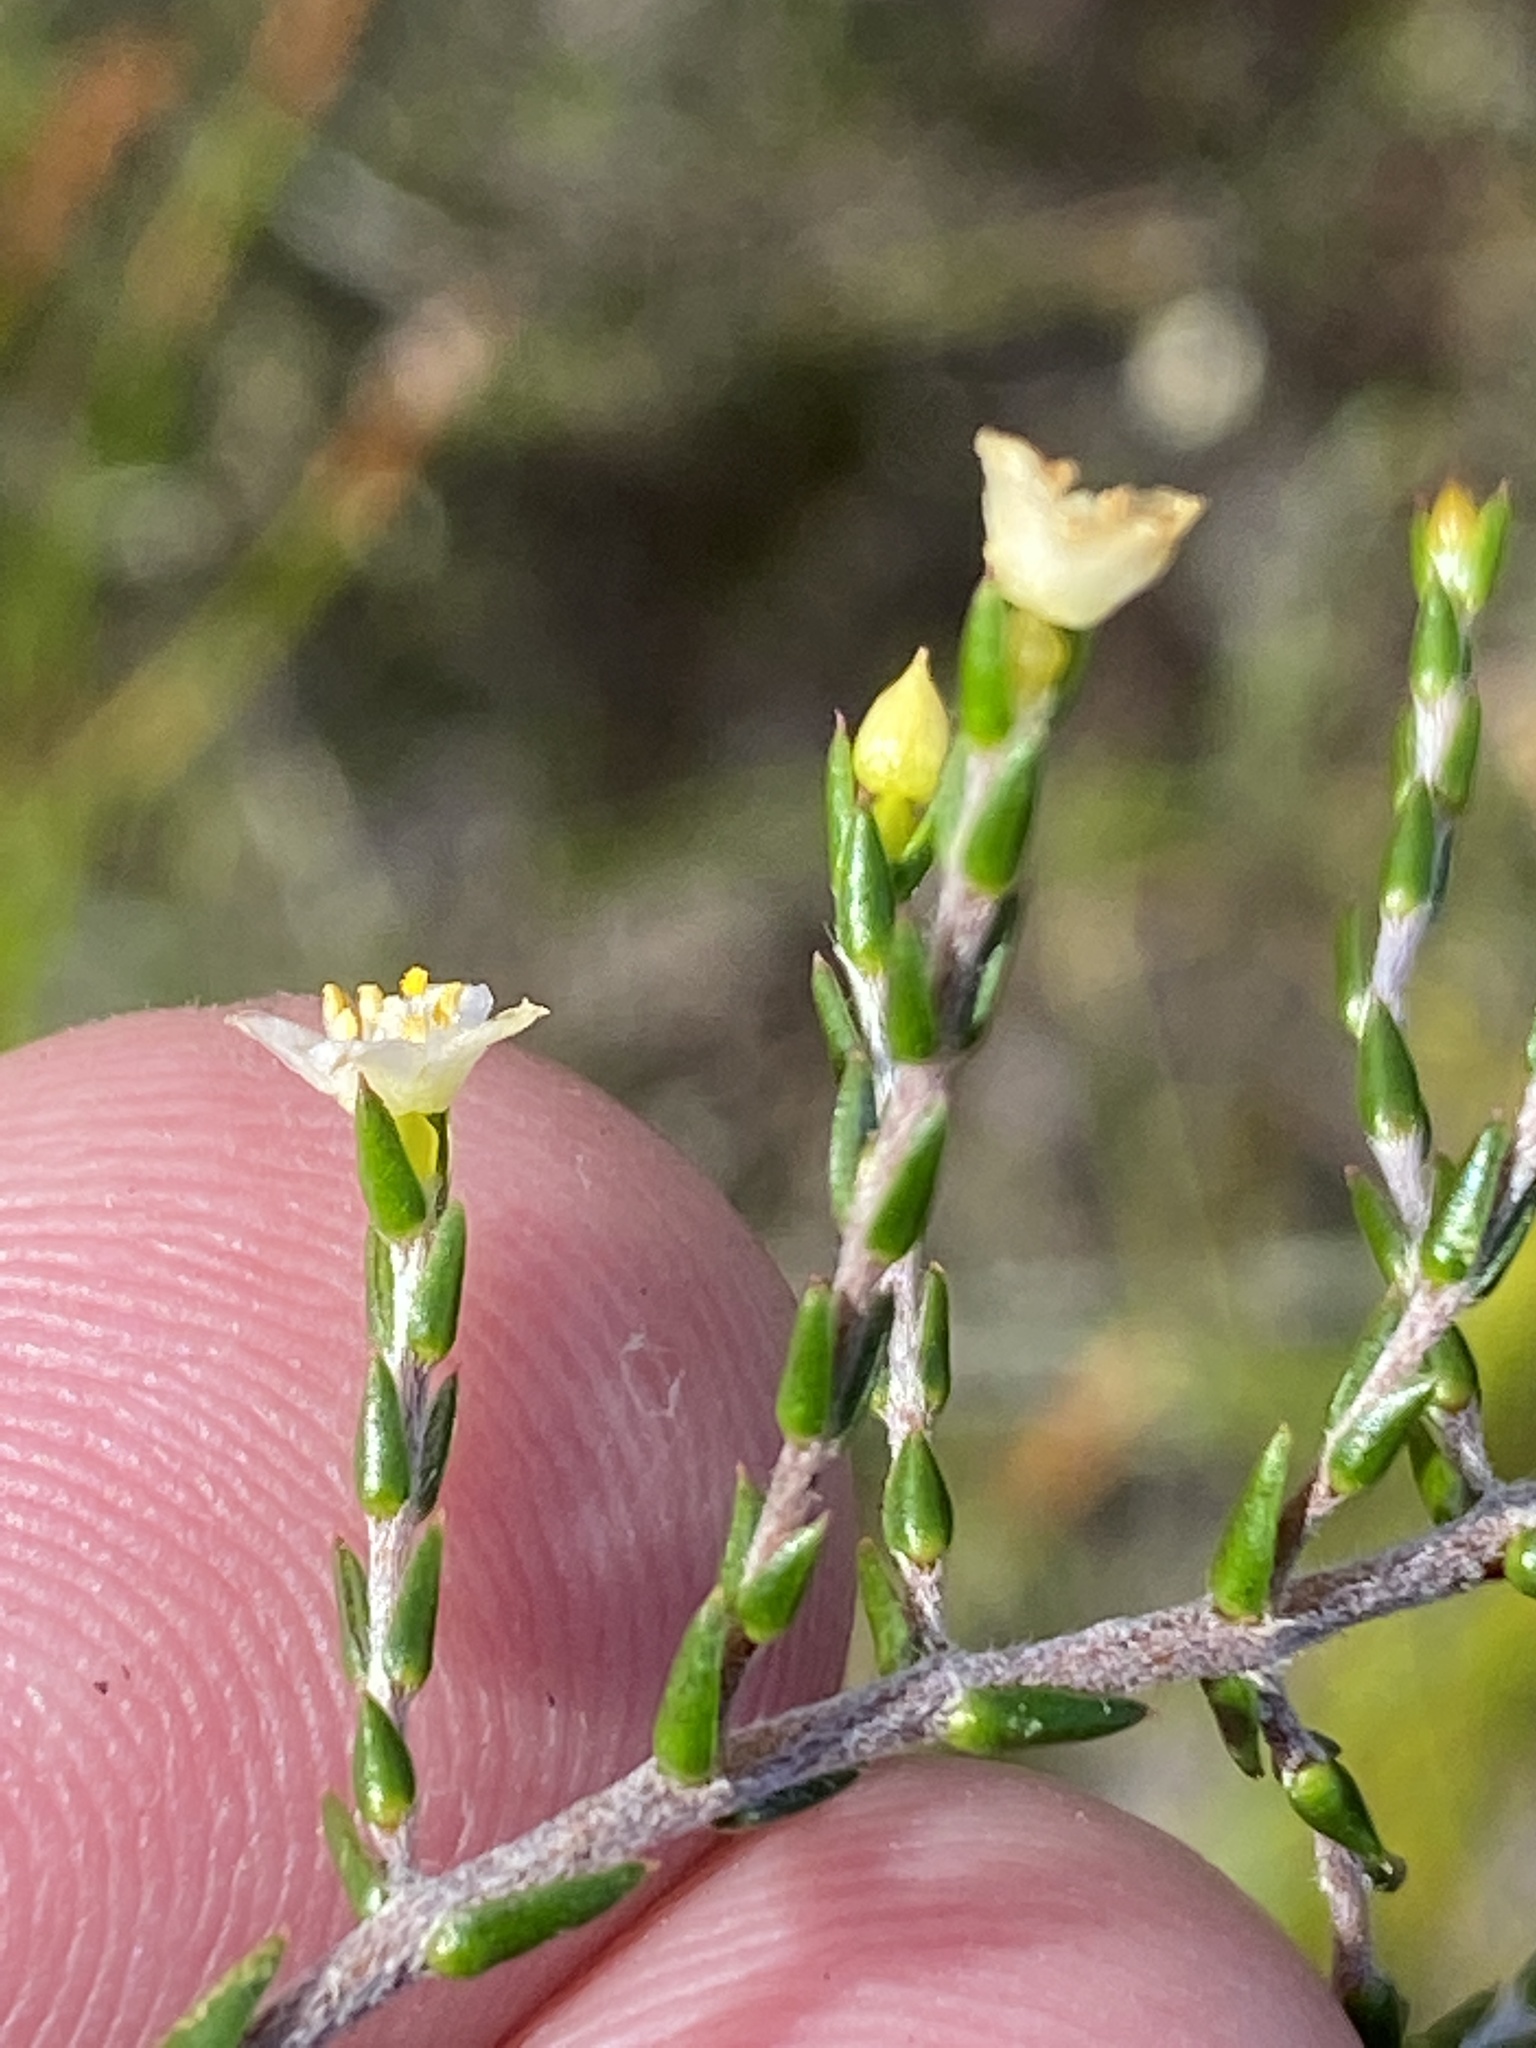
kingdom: Plantae
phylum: Tracheophyta
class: Magnoliopsida
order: Malvales
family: Thymelaeaceae
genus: Lachnaea
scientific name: Lachnaea axillaris
